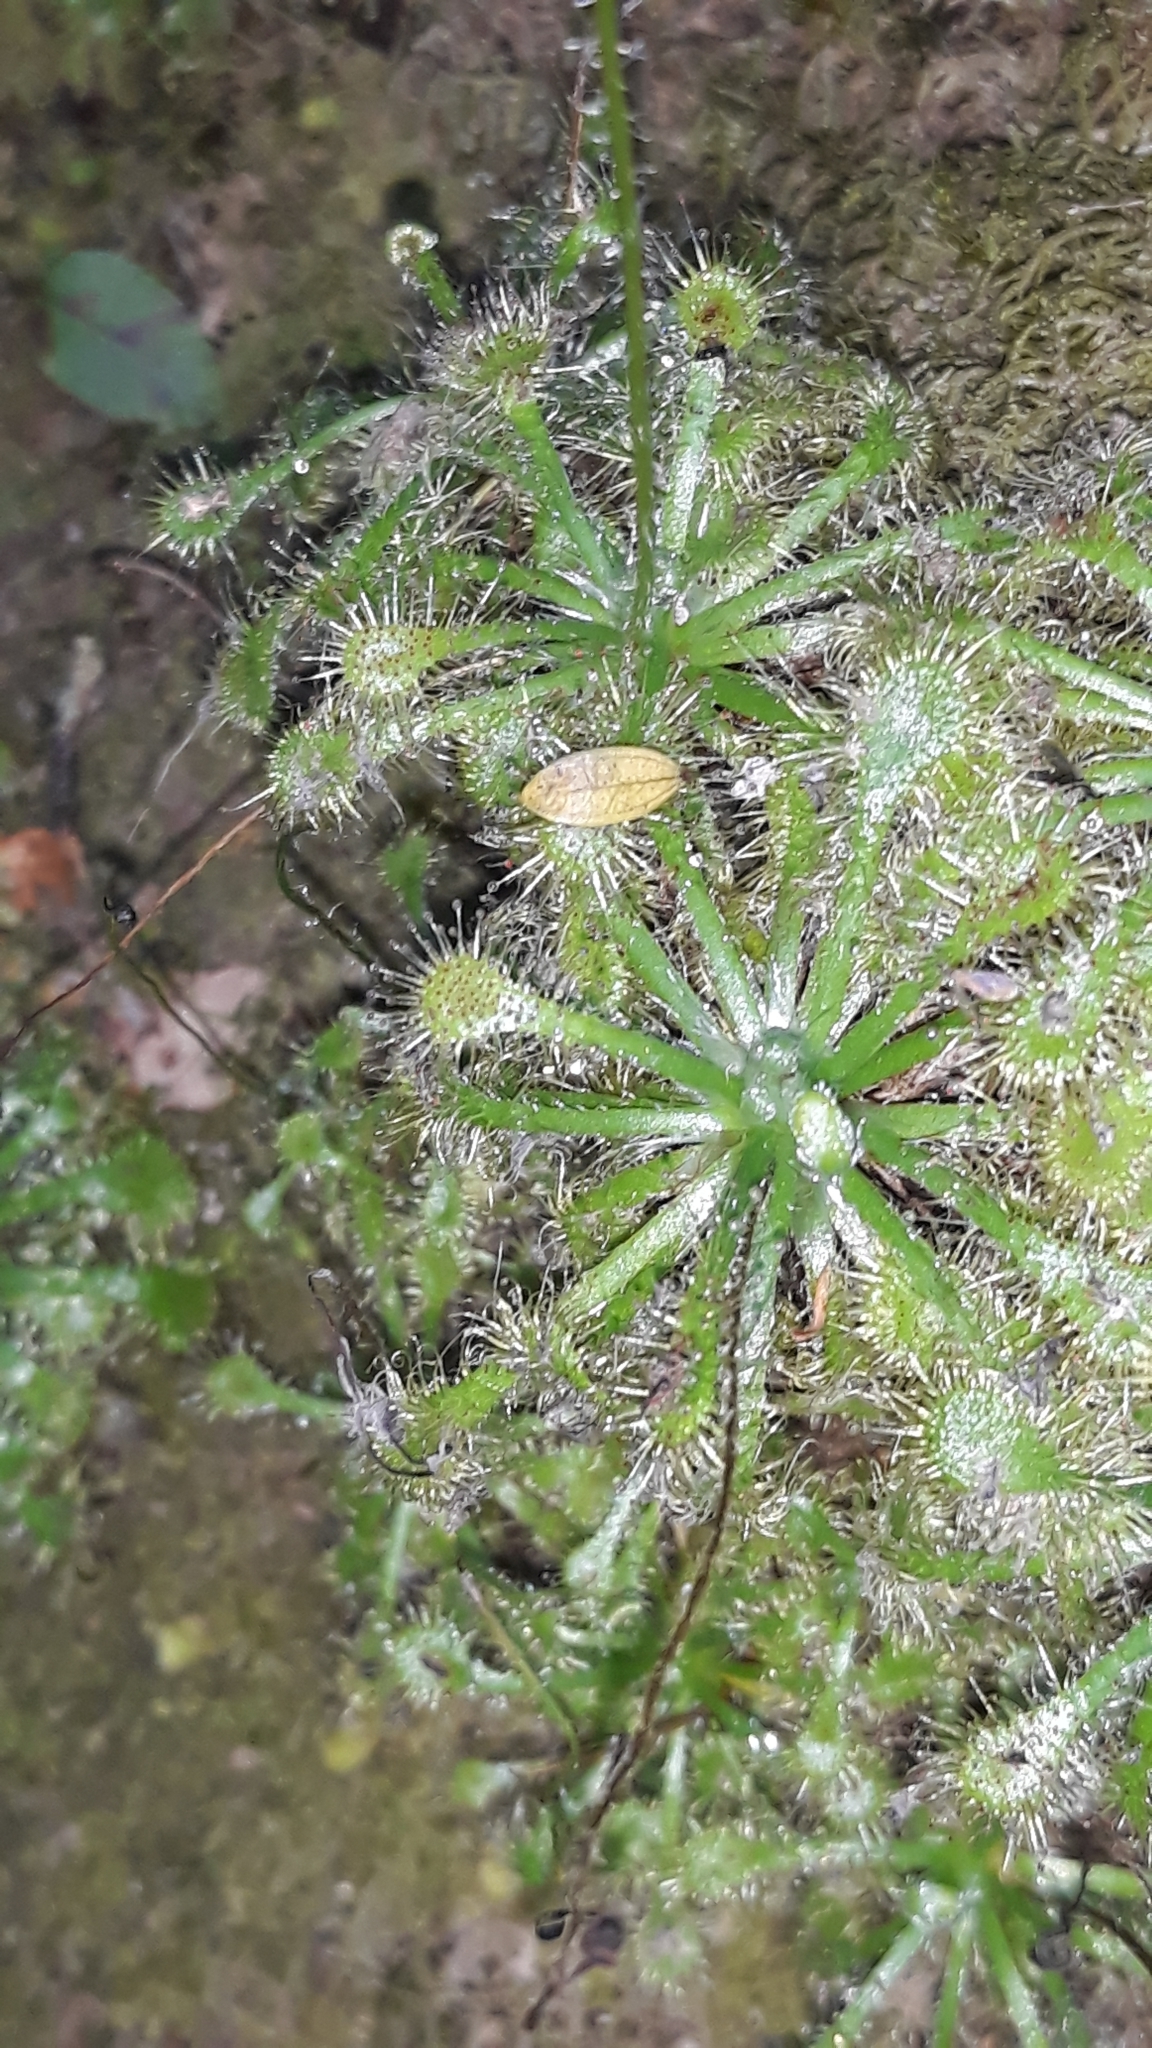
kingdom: Plantae
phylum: Tracheophyta
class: Magnoliopsida
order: Caryophyllales
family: Droseraceae
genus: Drosera
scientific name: Drosera spatulata
